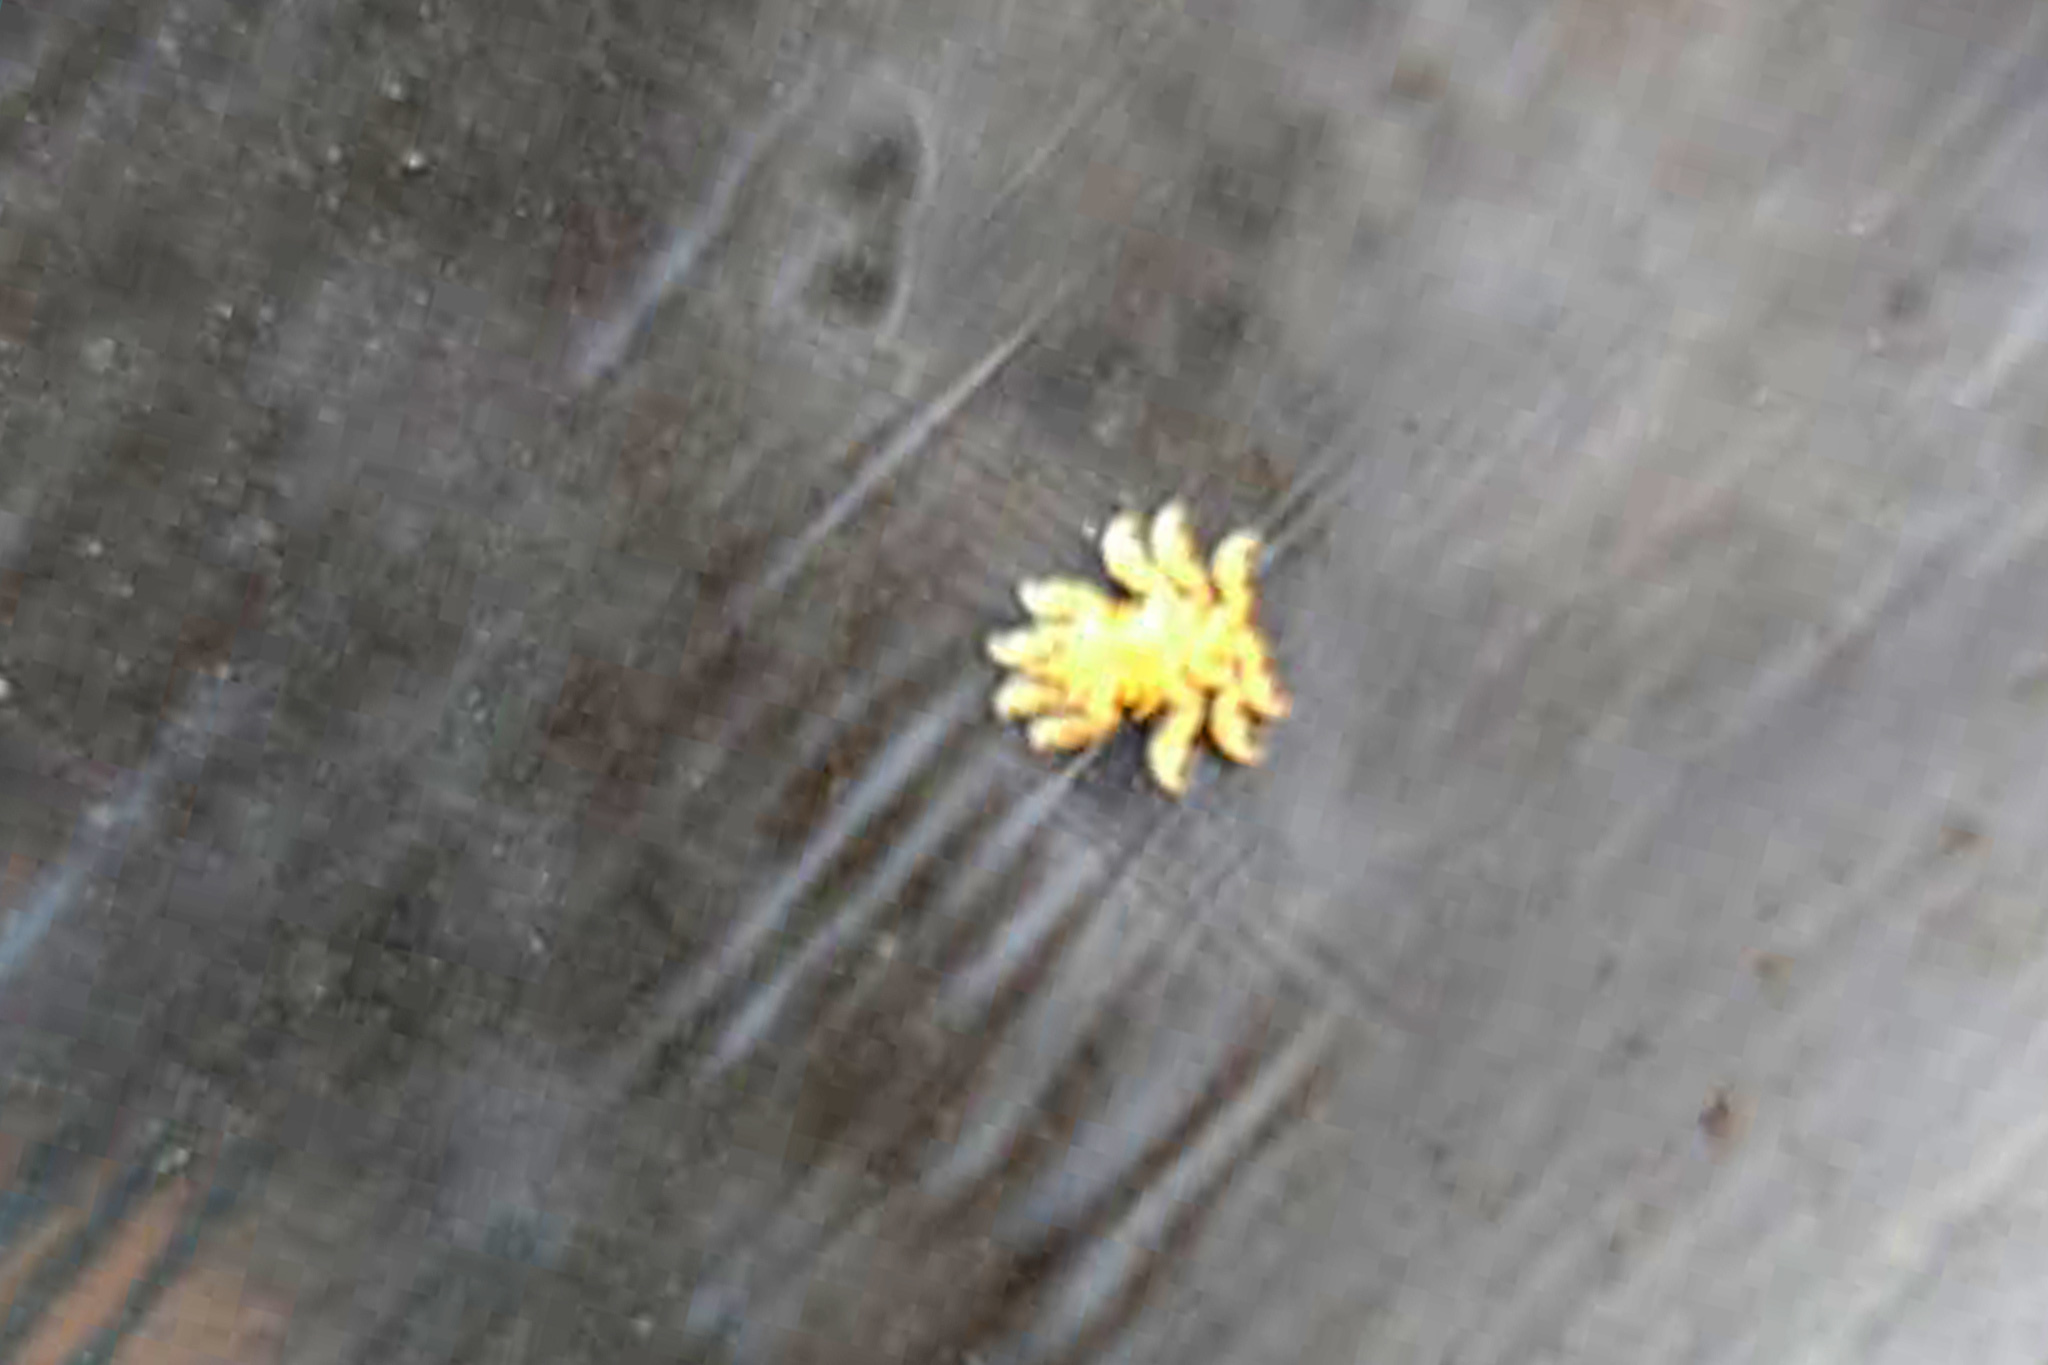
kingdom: Animalia
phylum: Arthropoda
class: Malacostraca
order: Amphipoda
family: Cyamidae
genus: Platycyamus
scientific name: Platycyamus thompsoni
